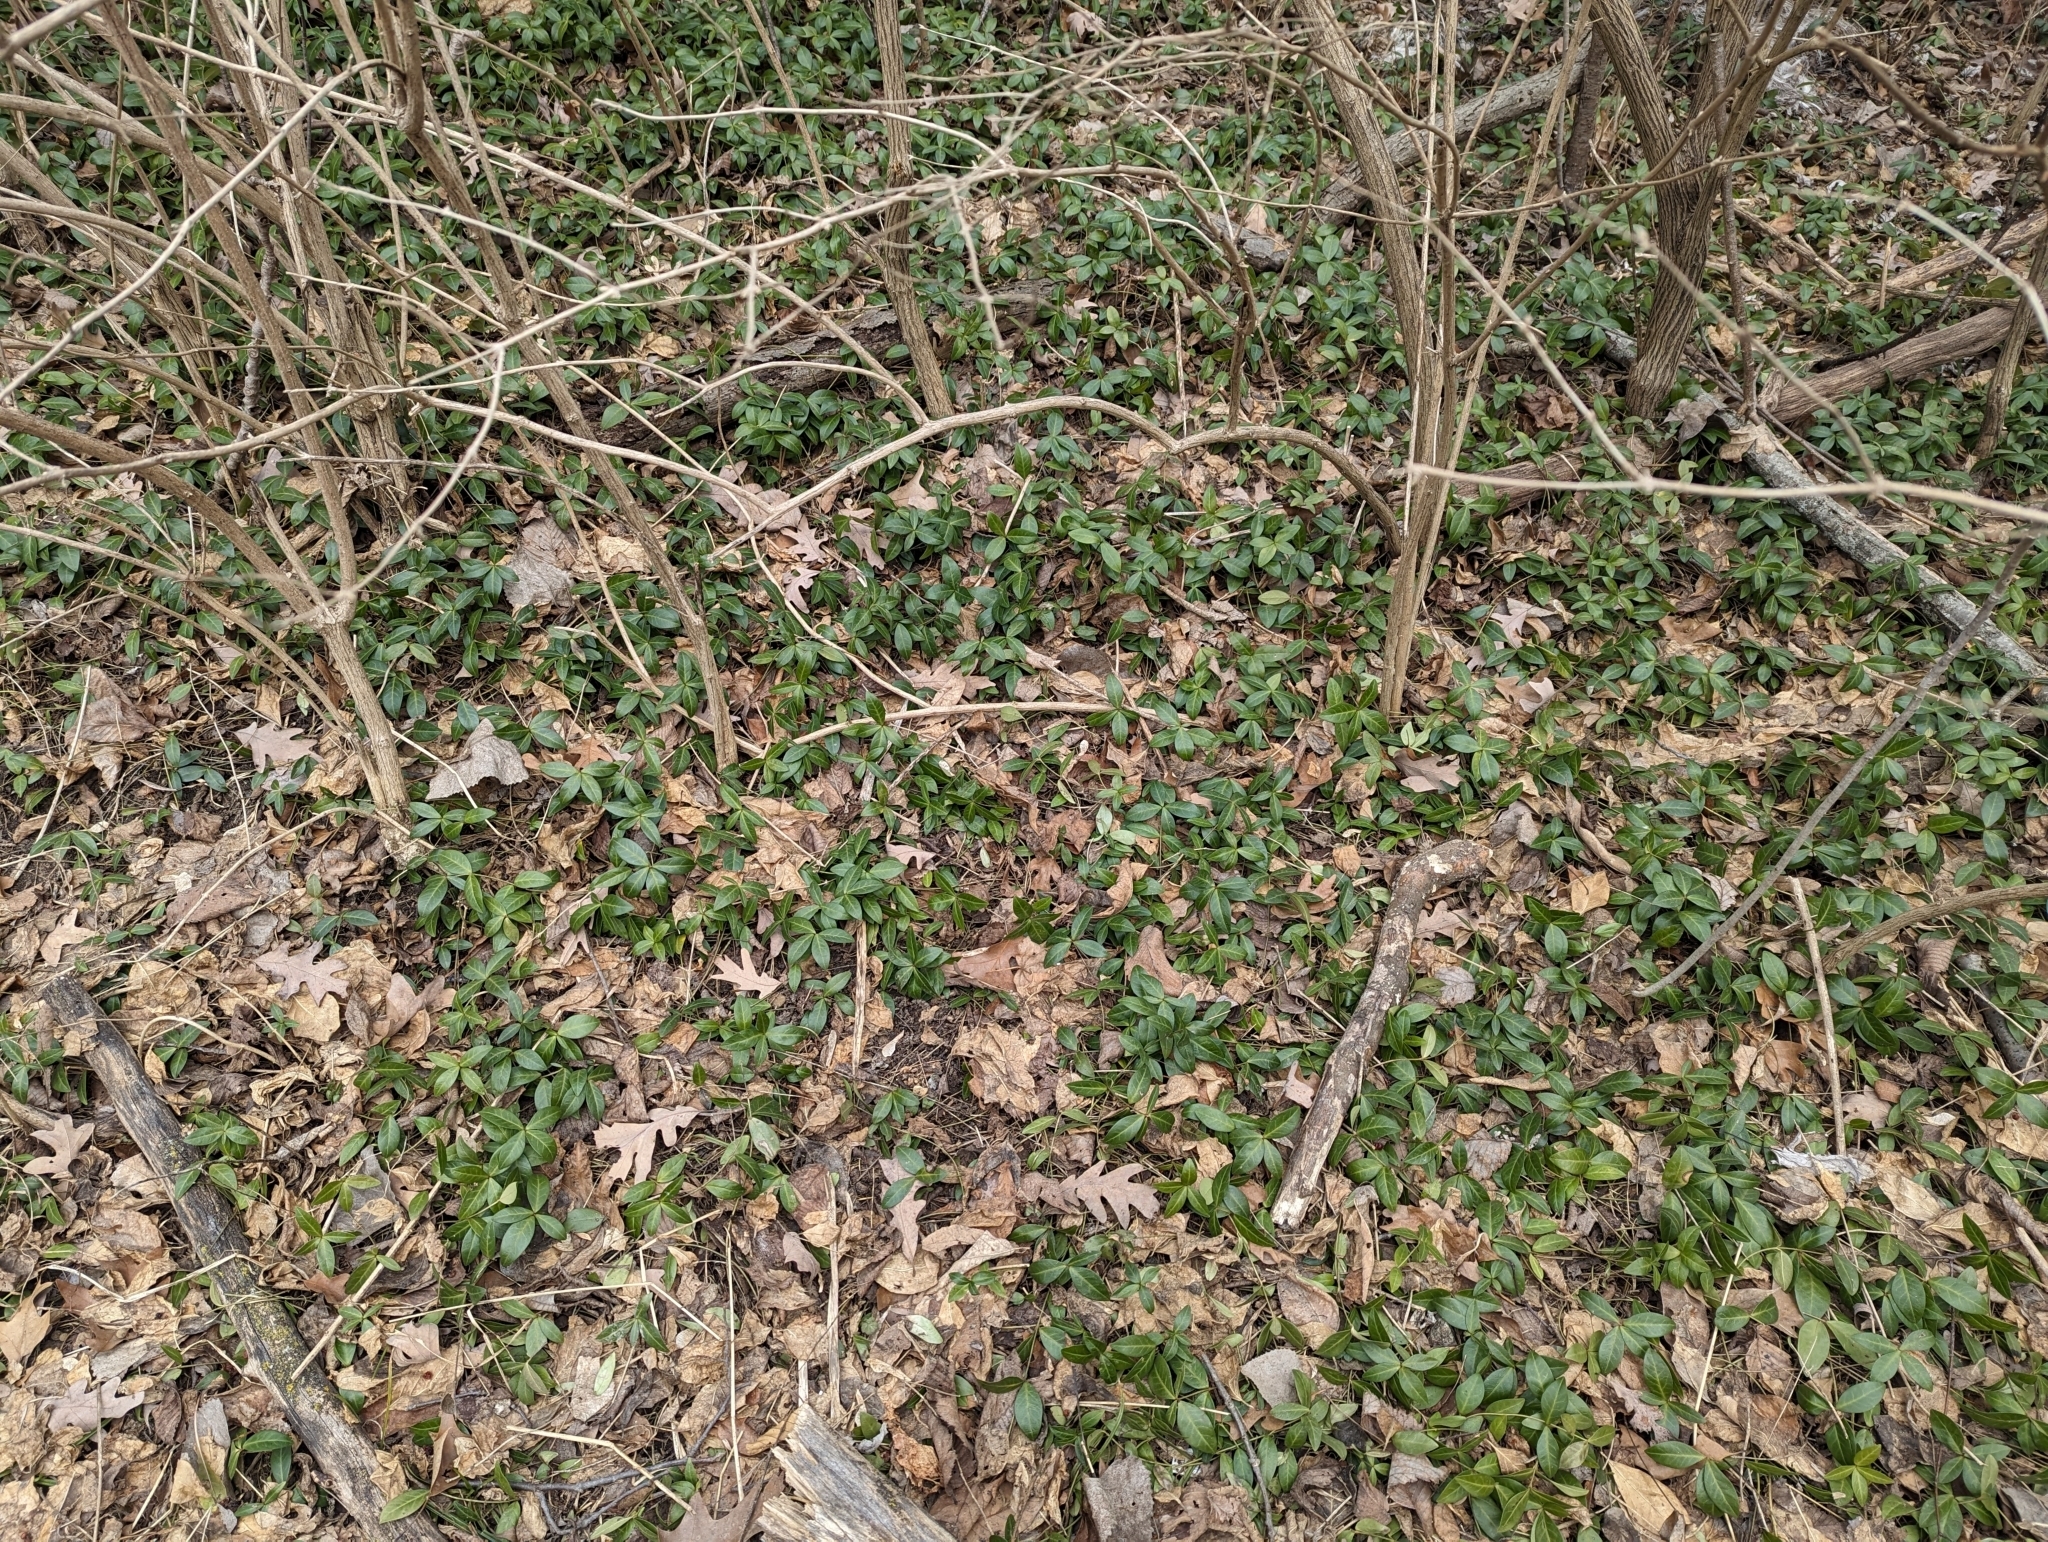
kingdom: Plantae
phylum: Tracheophyta
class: Magnoliopsida
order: Gentianales
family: Apocynaceae
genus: Vinca
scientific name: Vinca minor
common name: Lesser periwinkle
